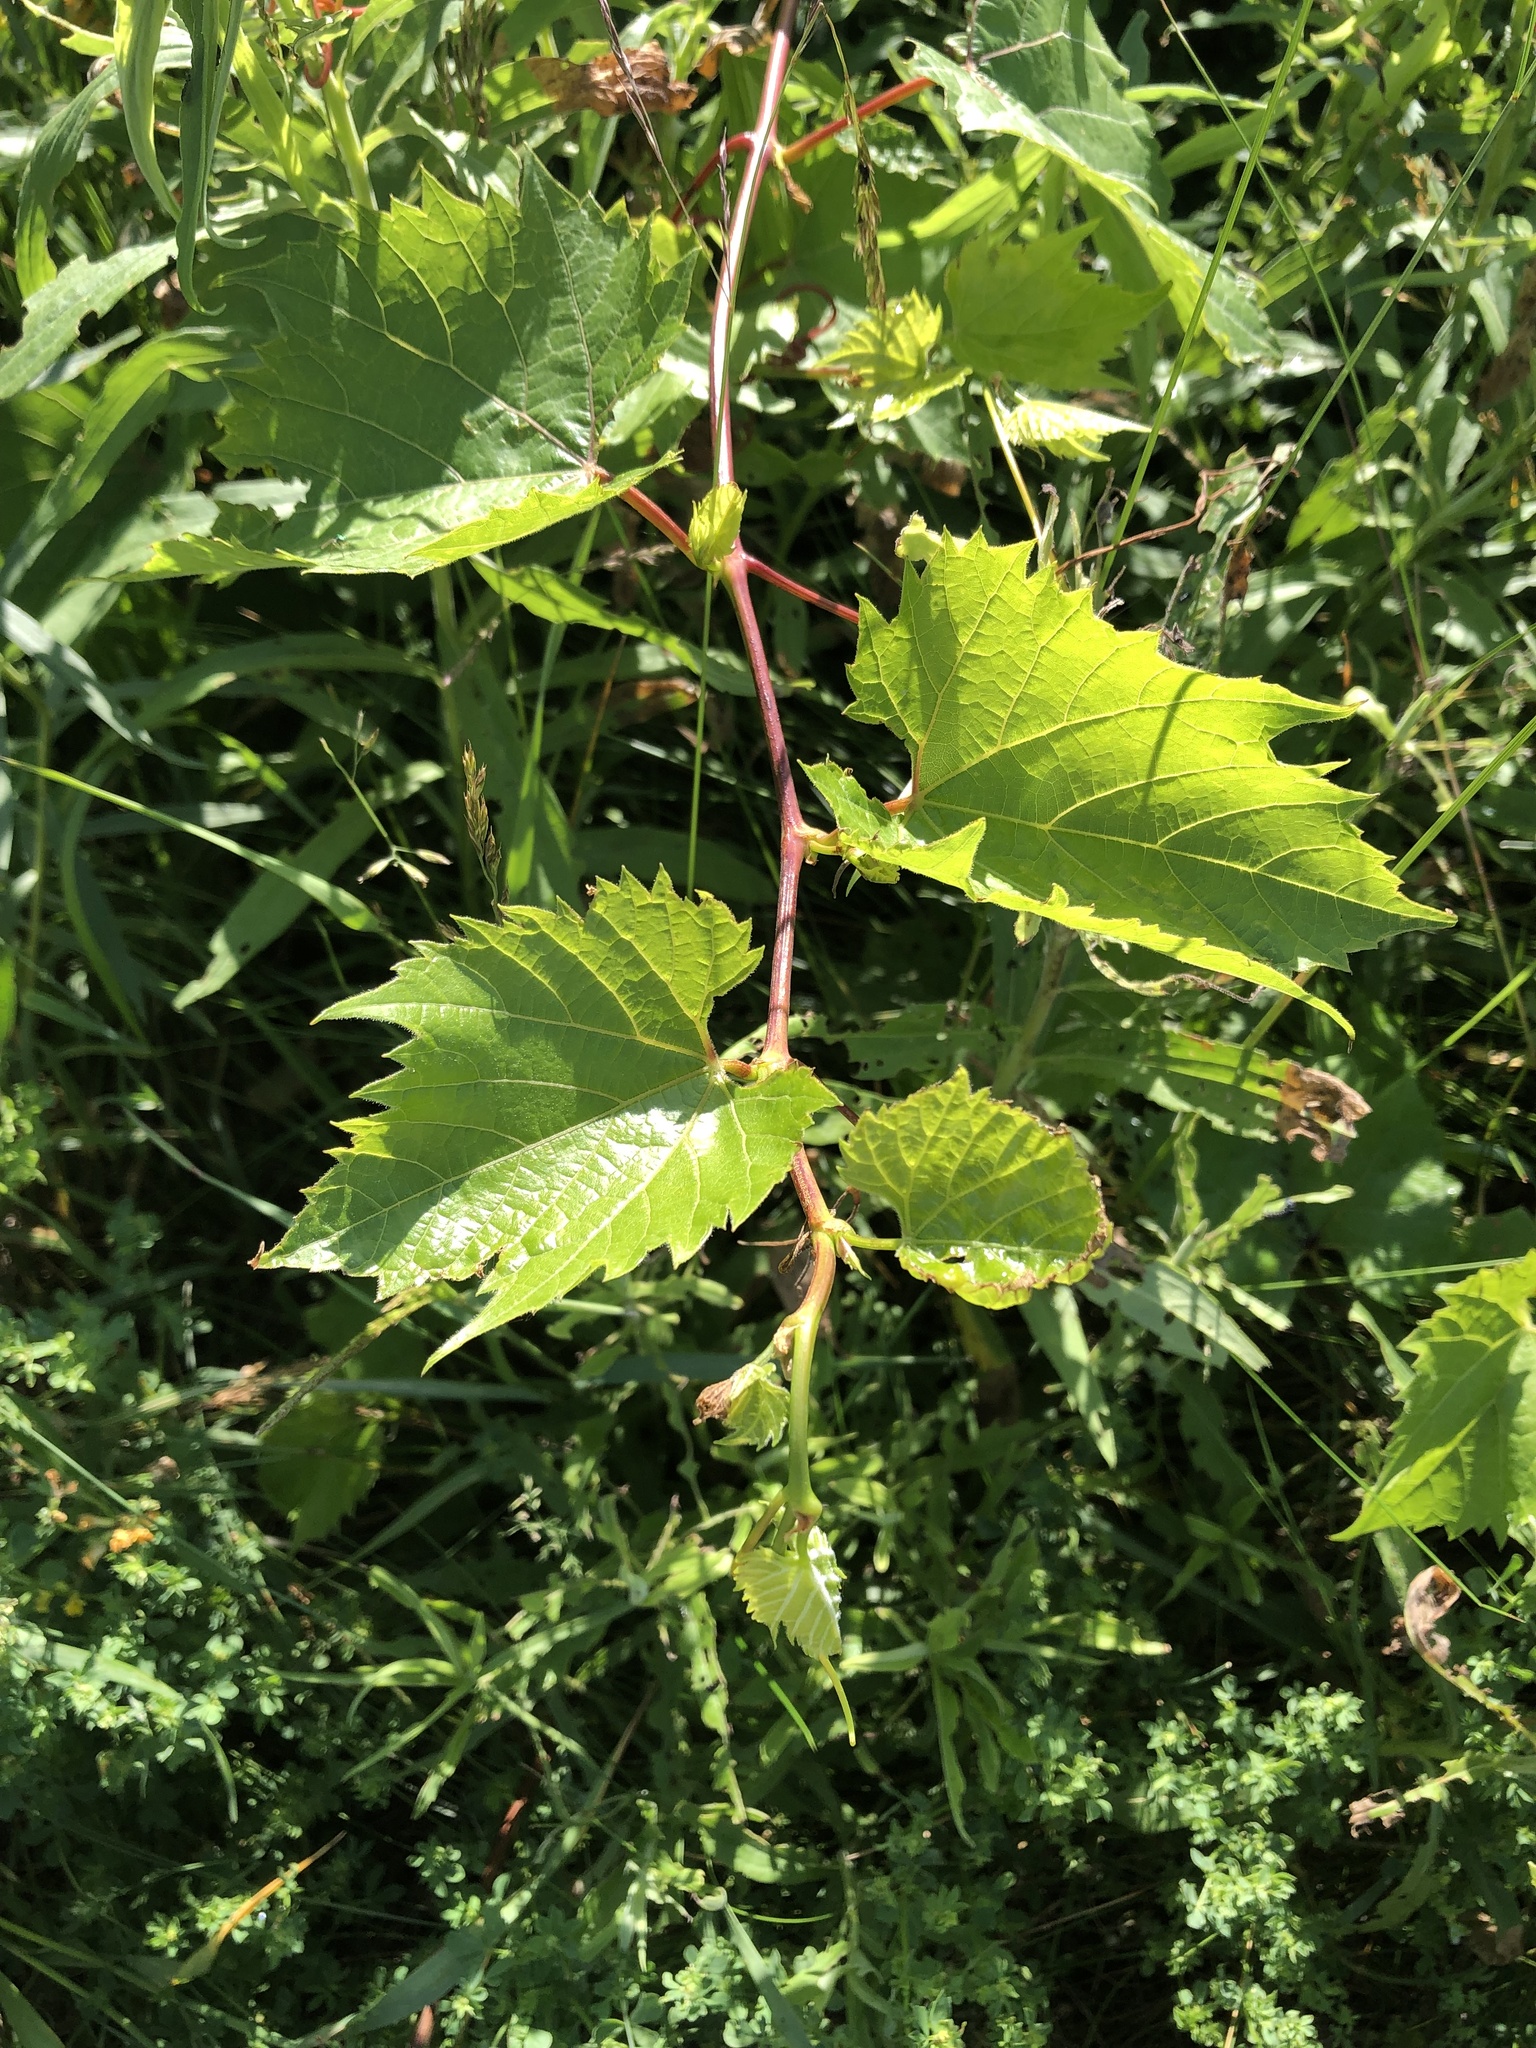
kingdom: Plantae
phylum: Tracheophyta
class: Magnoliopsida
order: Vitales
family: Vitaceae
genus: Vitis
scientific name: Vitis riparia
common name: Frost grape
